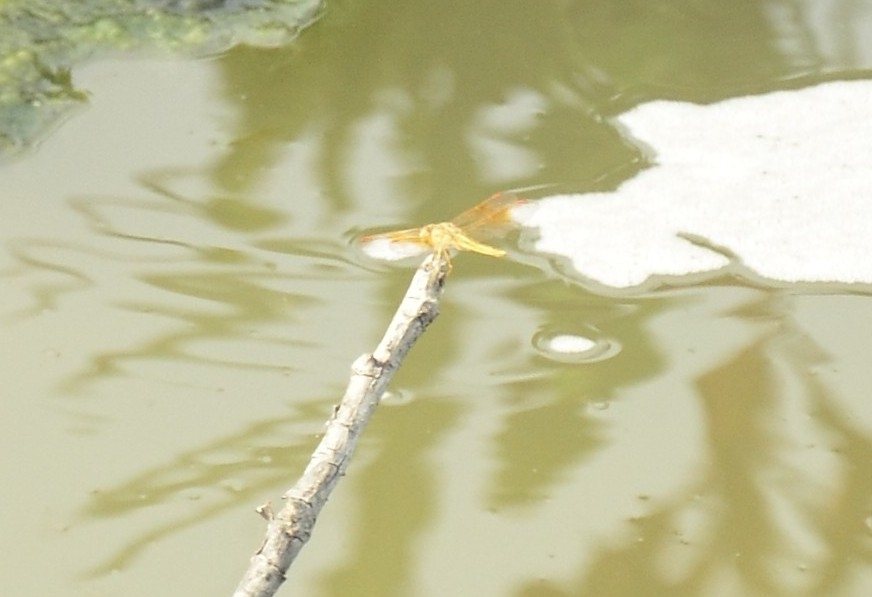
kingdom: Animalia
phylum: Arthropoda
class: Insecta
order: Odonata
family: Libellulidae
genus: Brachythemis
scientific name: Brachythemis contaminata
